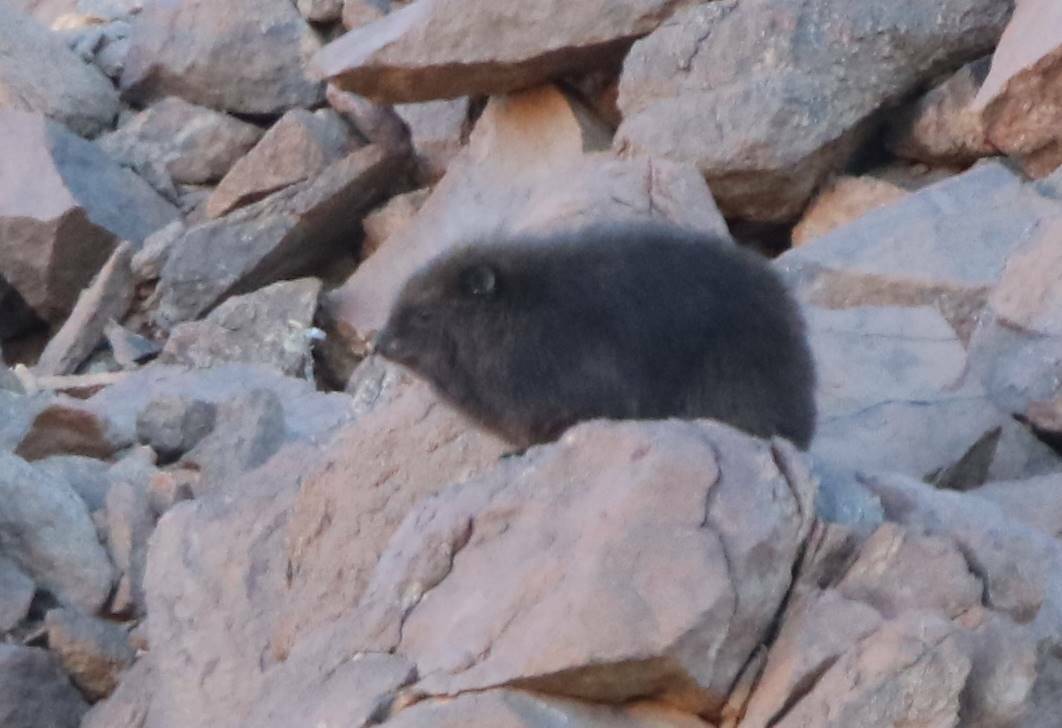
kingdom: Animalia
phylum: Chordata
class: Mammalia
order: Hyracoidea
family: Procaviidae
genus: Procavia
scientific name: Procavia capensis
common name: Rock hyrax
